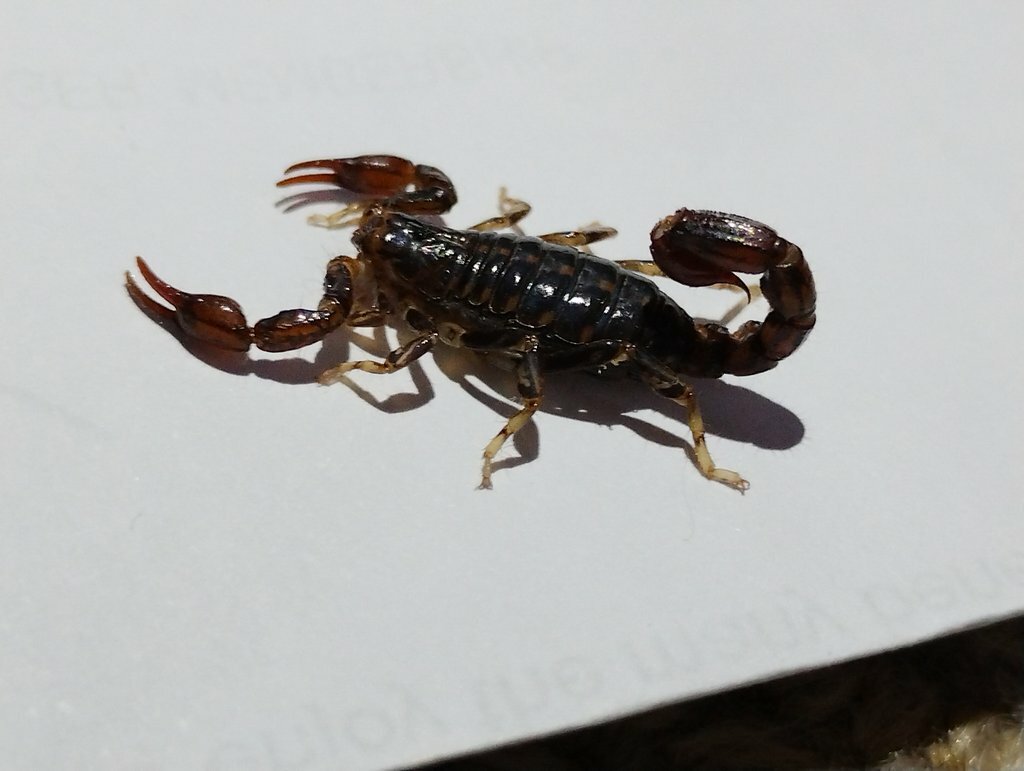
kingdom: Animalia
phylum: Arthropoda
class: Arachnida
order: Scorpiones
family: Bothriuridae
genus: Cercophonius
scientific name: Cercophonius squama
